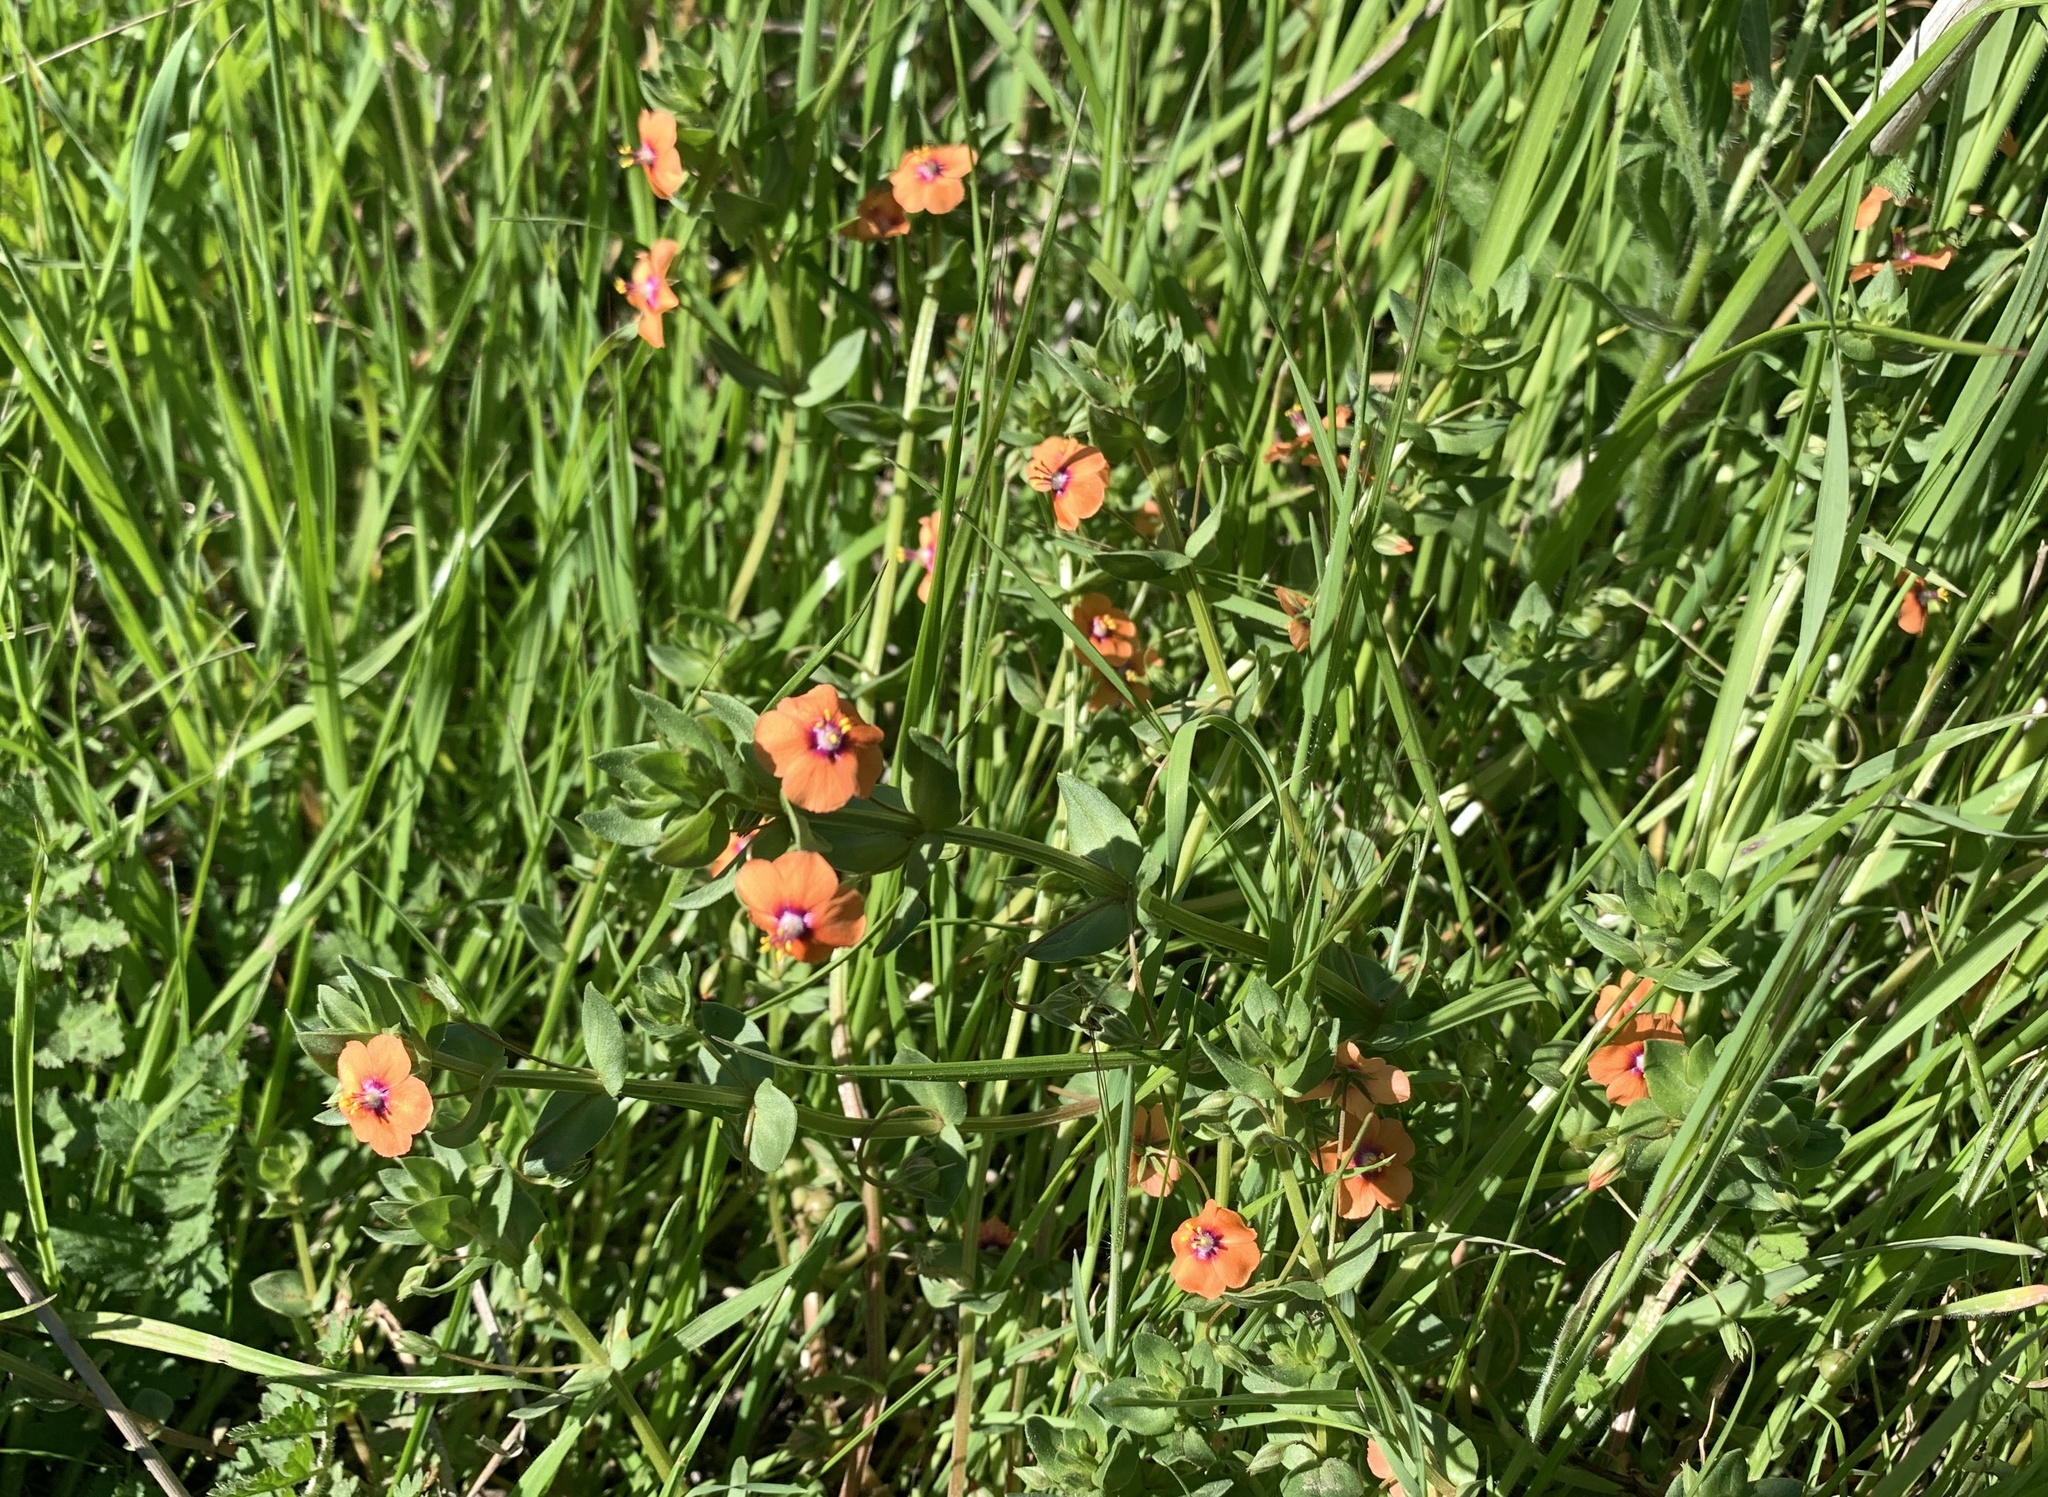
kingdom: Plantae
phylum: Tracheophyta
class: Magnoliopsida
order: Ericales
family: Primulaceae
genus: Lysimachia
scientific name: Lysimachia arvensis
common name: Scarlet pimpernel
